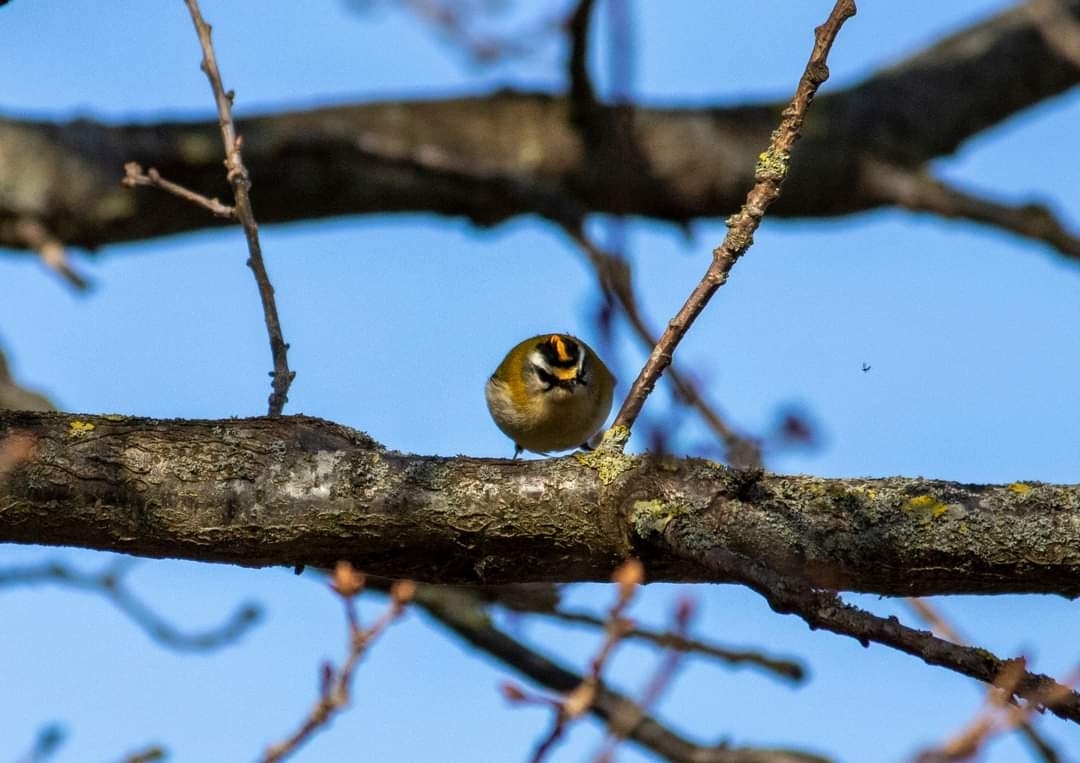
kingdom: Animalia
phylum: Chordata
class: Aves
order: Passeriformes
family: Regulidae
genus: Regulus
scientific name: Regulus ignicapilla
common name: Firecrest
